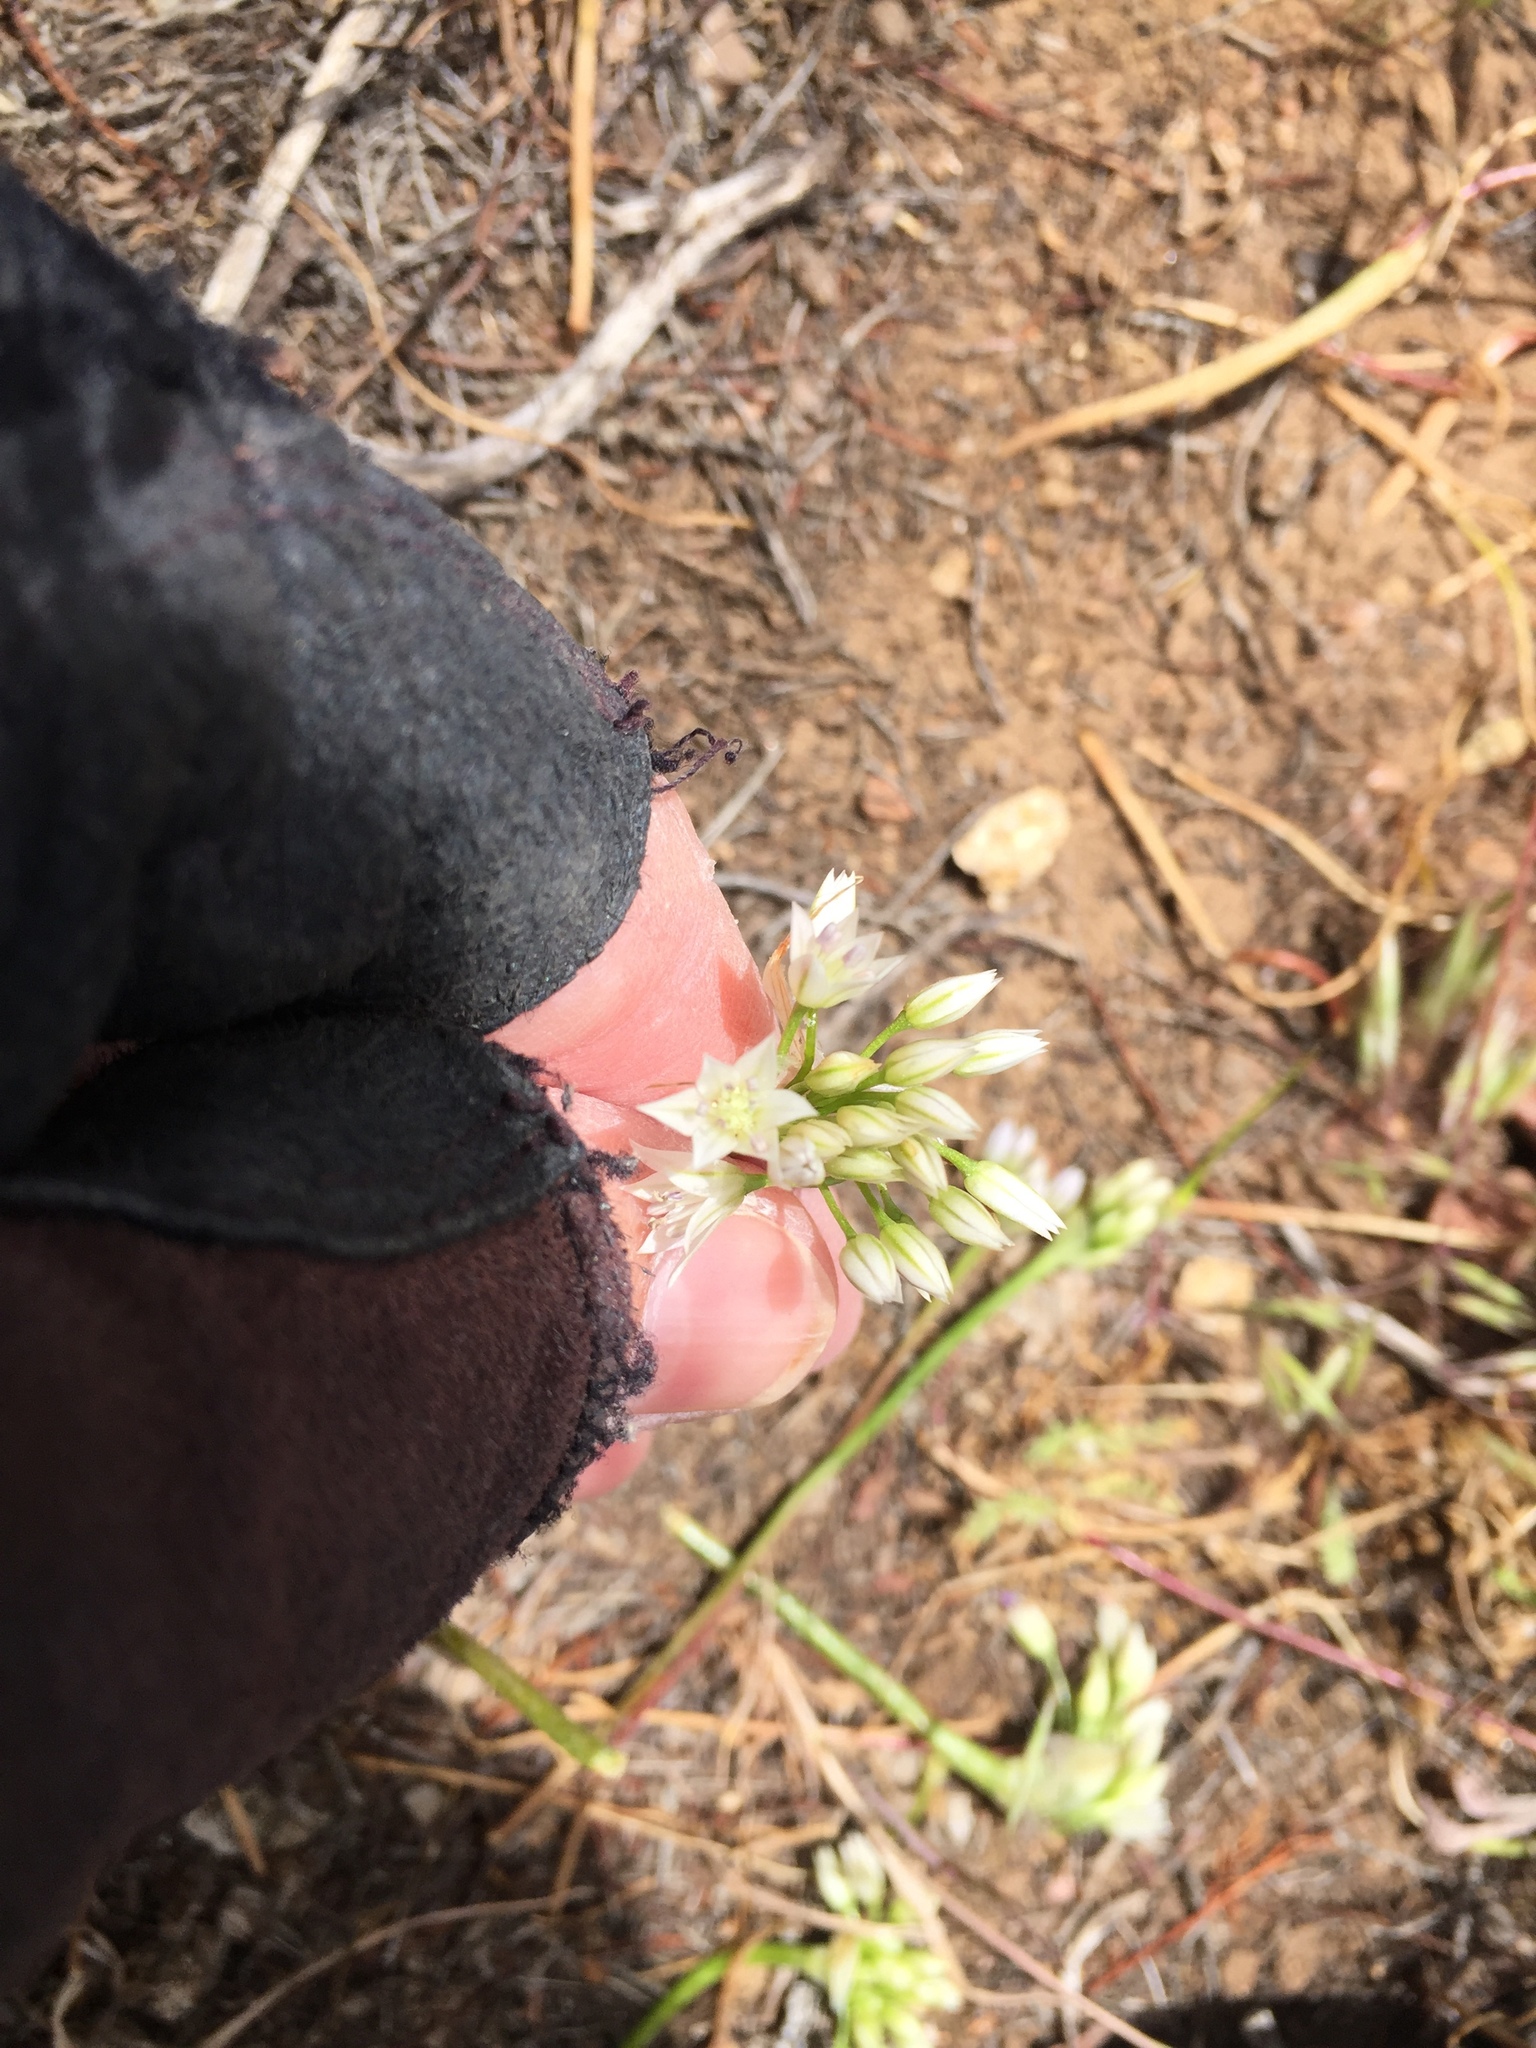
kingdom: Plantae
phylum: Tracheophyta
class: Liliopsida
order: Asparagales
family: Amaryllidaceae
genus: Allium
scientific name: Allium parryi
